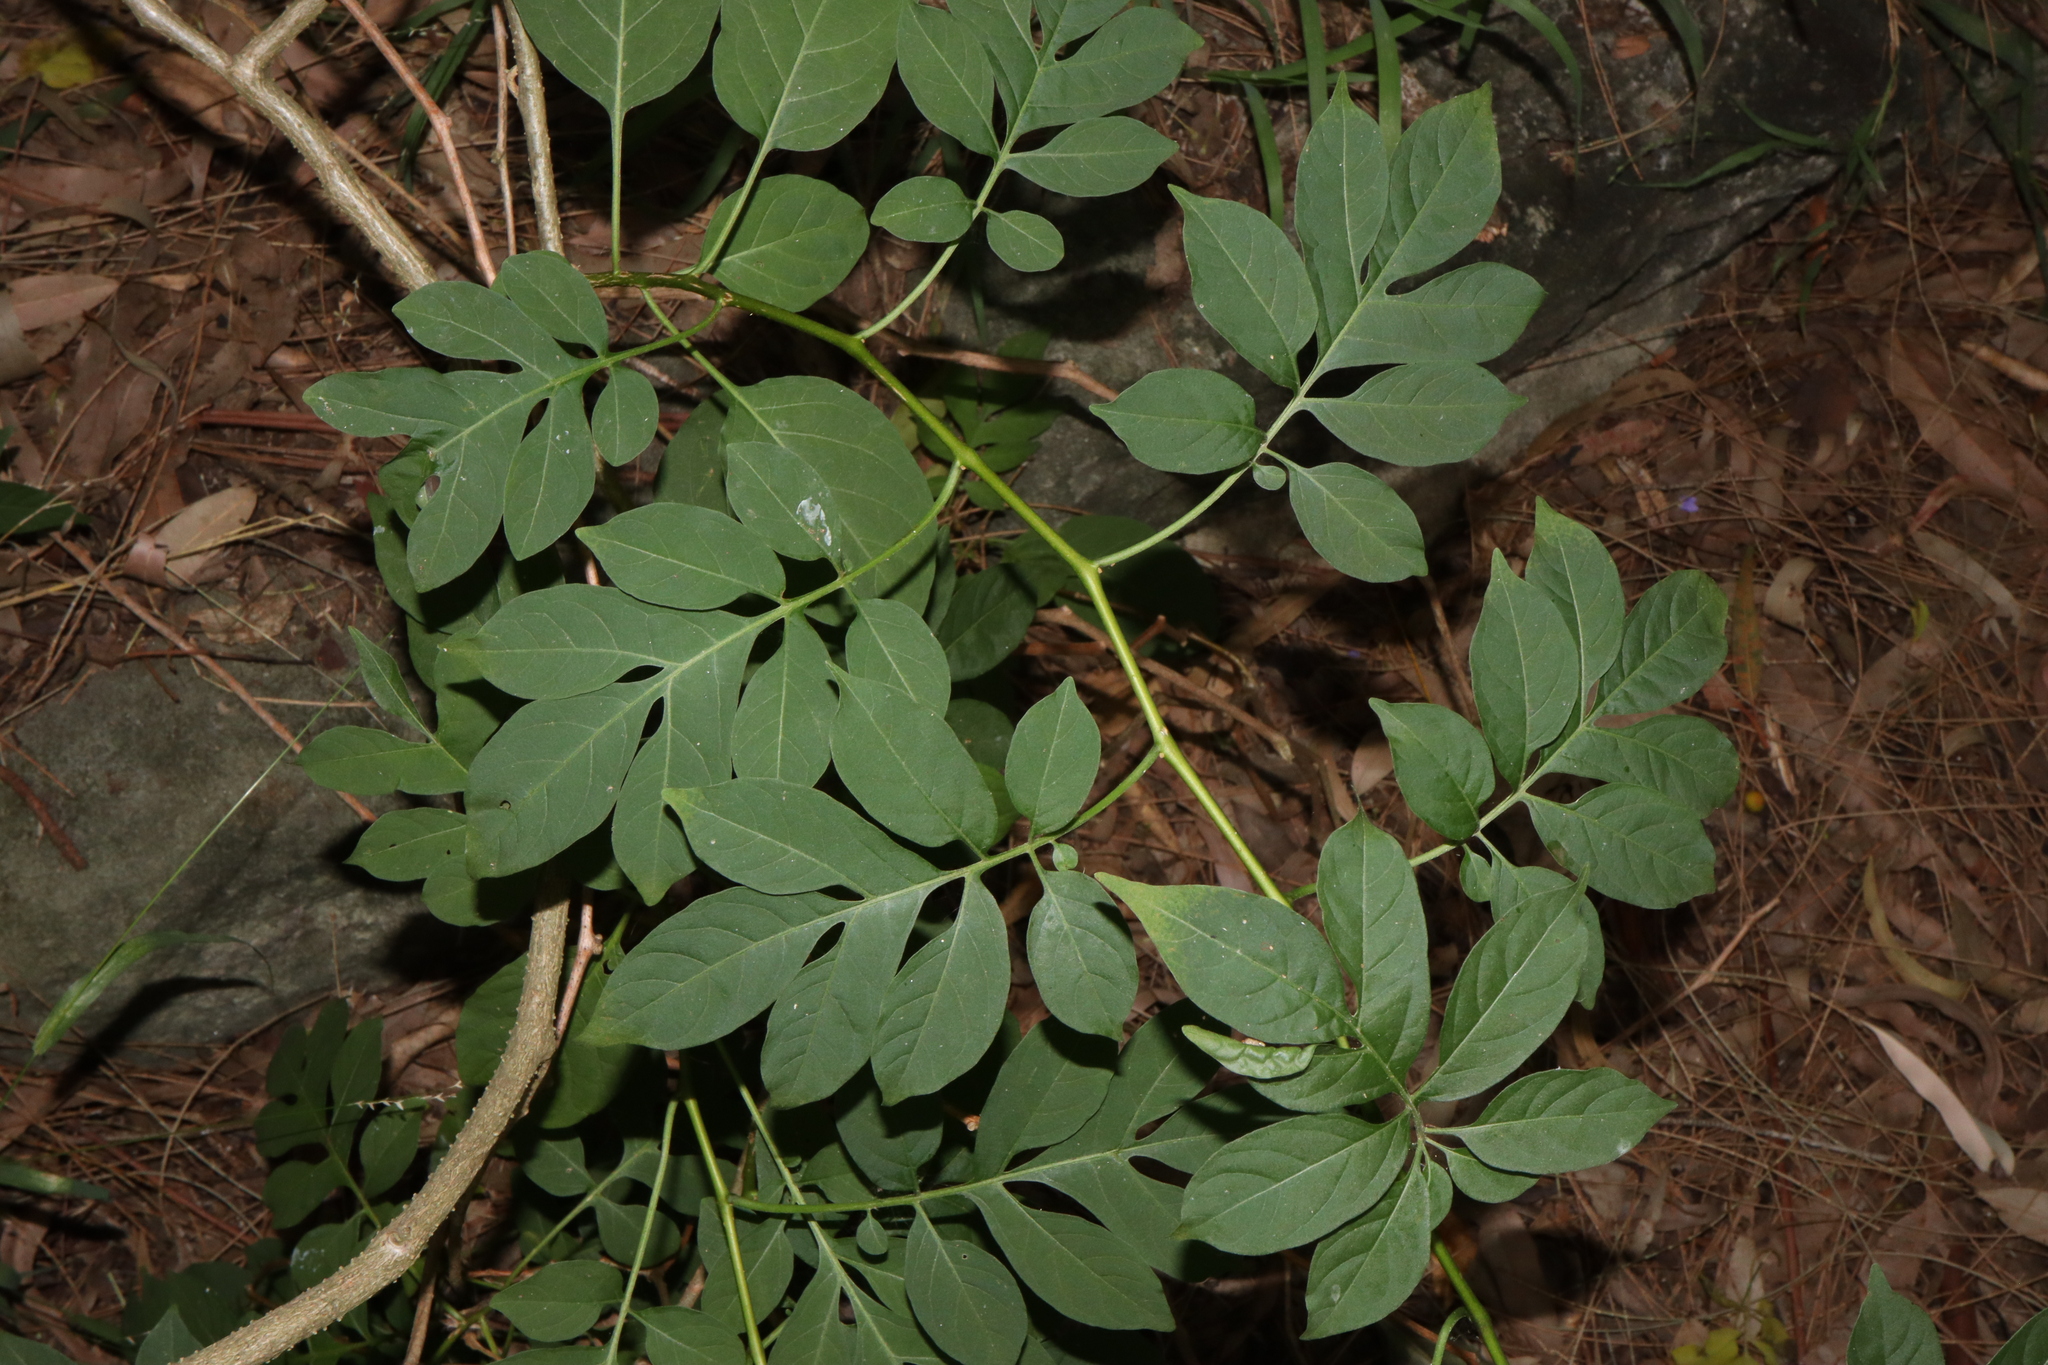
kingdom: Plantae
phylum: Tracheophyta
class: Magnoliopsida
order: Solanales
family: Solanaceae
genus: Solanum
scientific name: Solanum seaforthianum
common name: Brazilian nightshade
